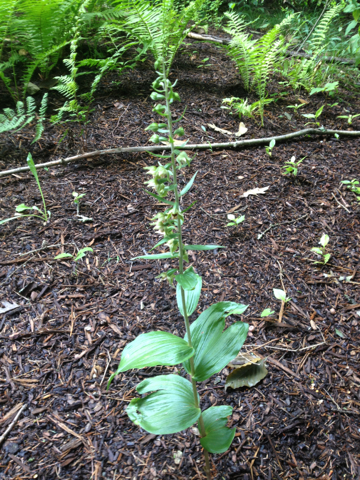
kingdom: Plantae
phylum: Tracheophyta
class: Liliopsida
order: Asparagales
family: Orchidaceae
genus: Epipactis
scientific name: Epipactis helleborine
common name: Broad-leaved helleborine
